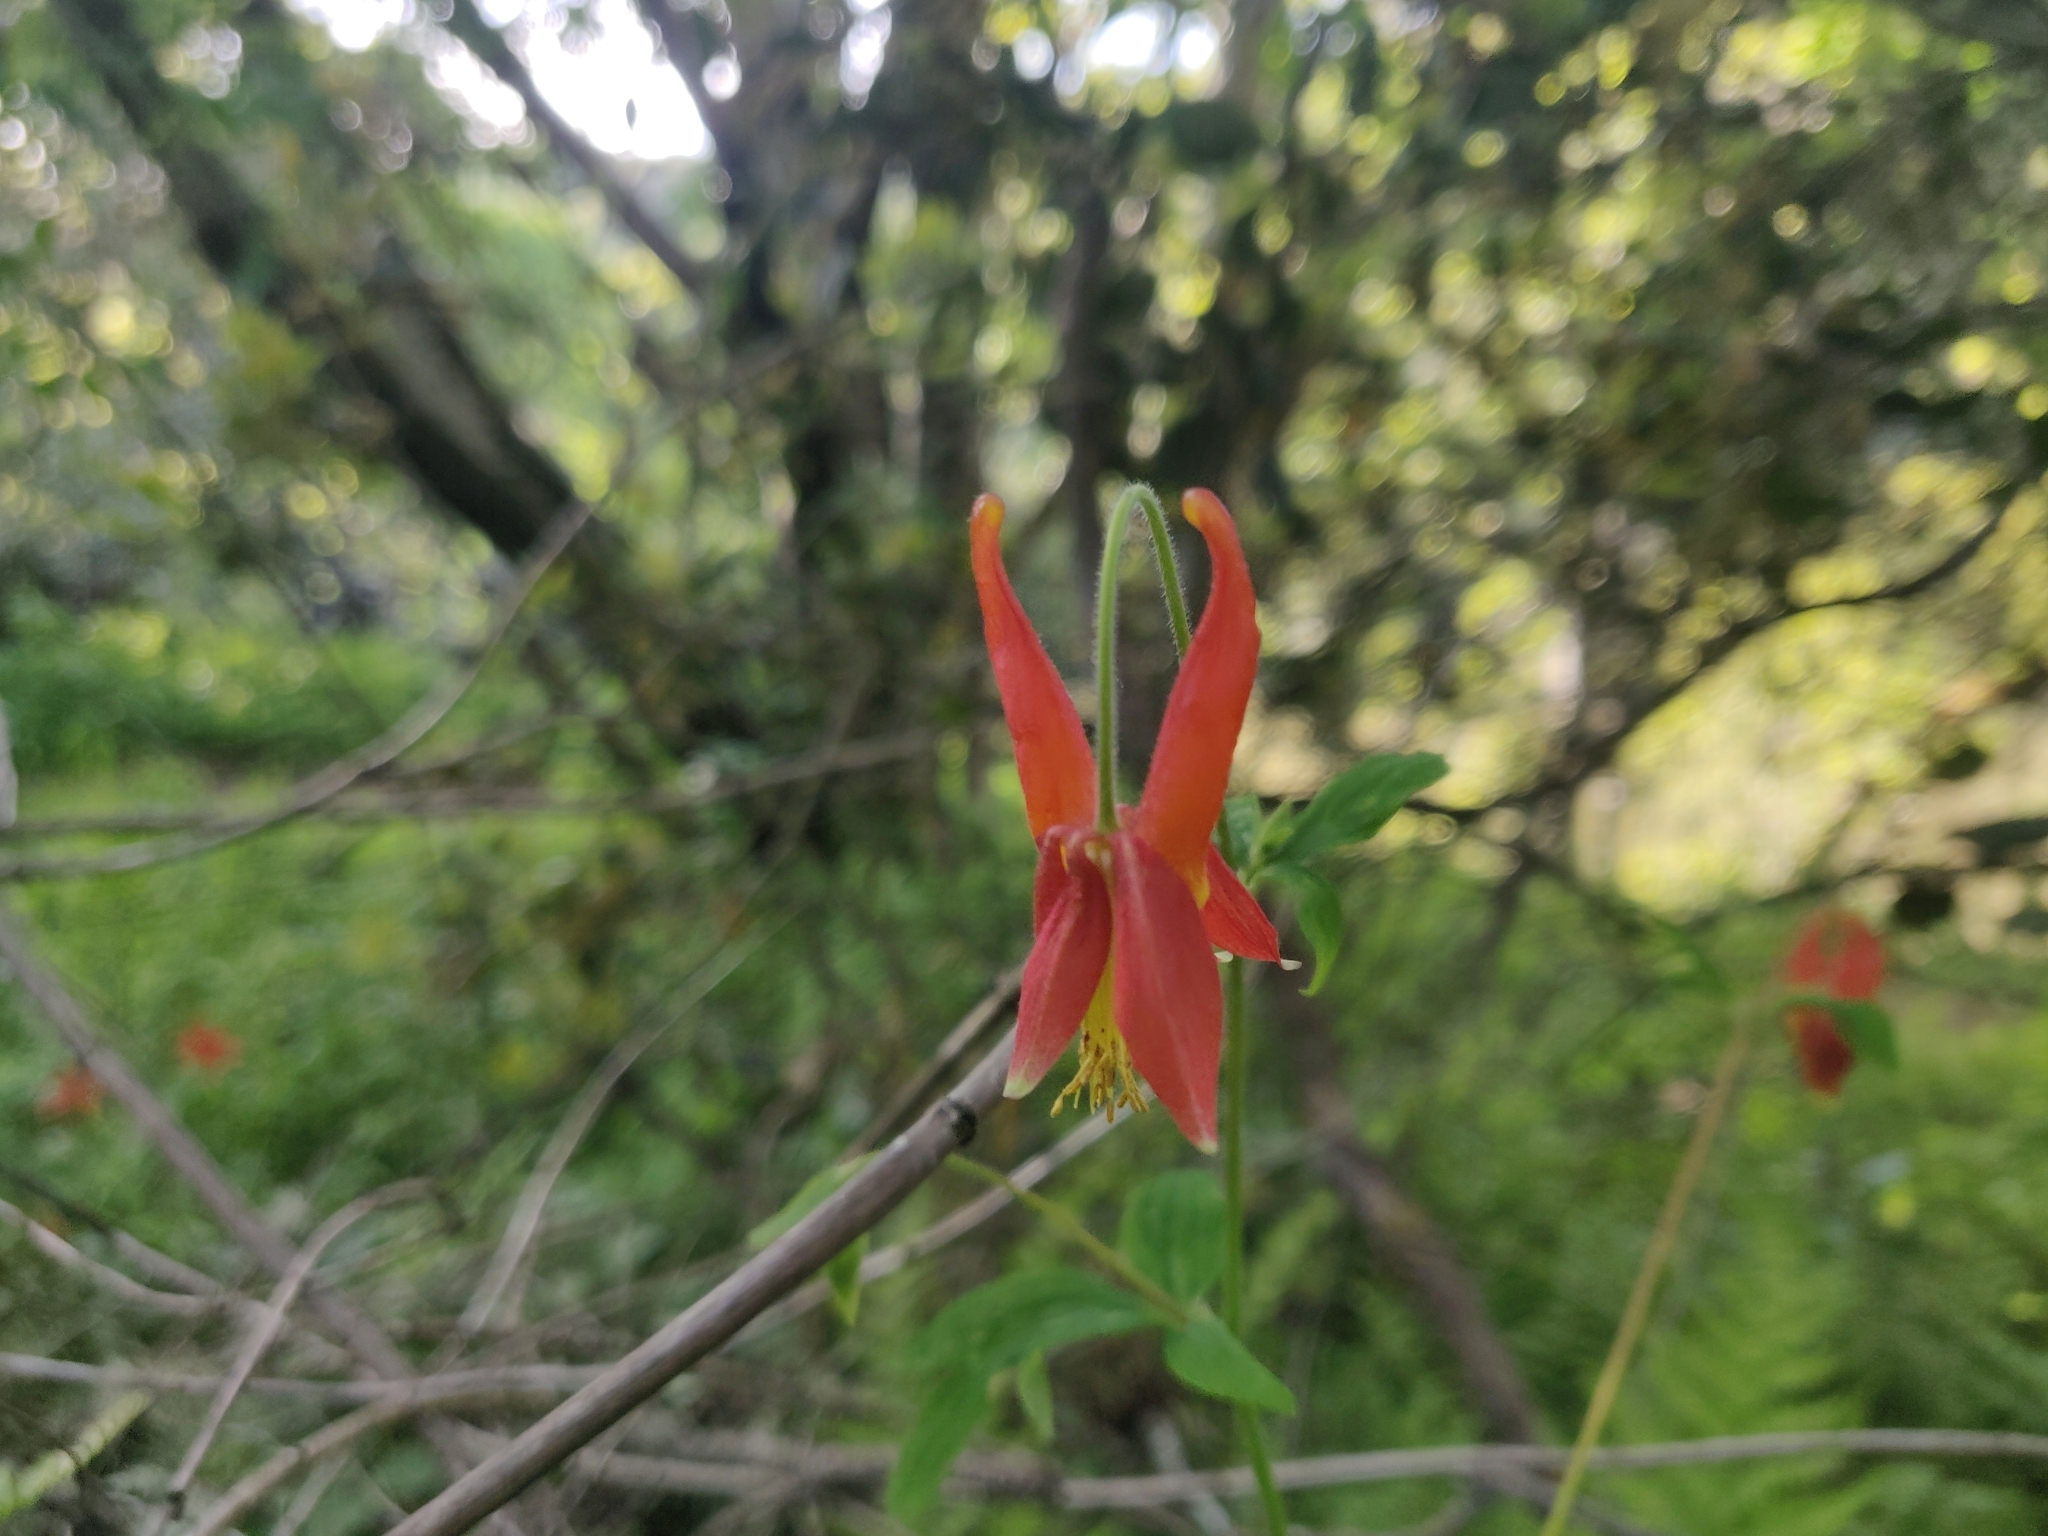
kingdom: Plantae
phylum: Tracheophyta
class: Magnoliopsida
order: Ranunculales
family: Ranunculaceae
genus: Aquilegia
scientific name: Aquilegia formosa
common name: Sitka columbine
